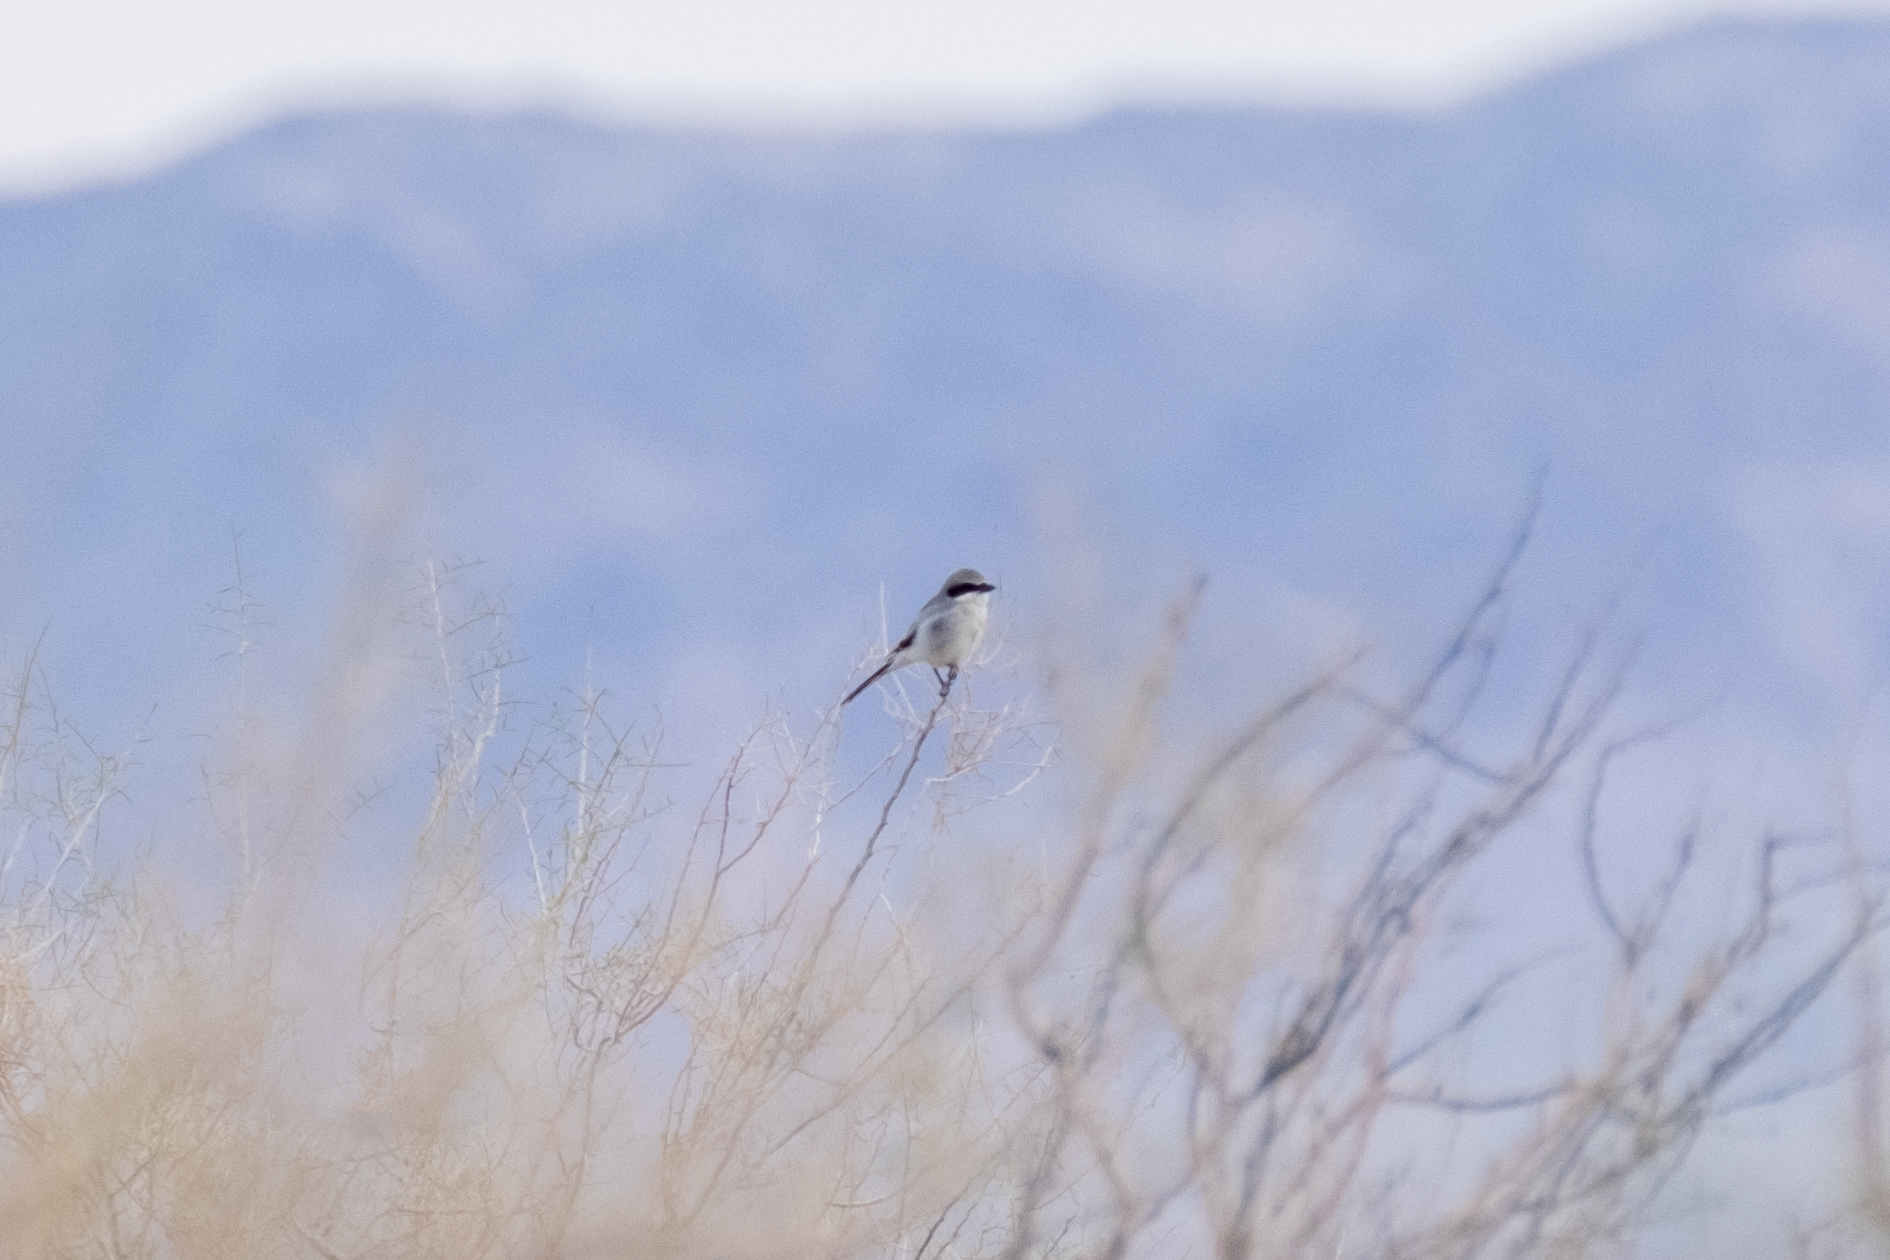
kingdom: Animalia
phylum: Chordata
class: Aves
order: Passeriformes
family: Laniidae
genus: Lanius
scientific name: Lanius ludovicianus
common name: Loggerhead shrike
